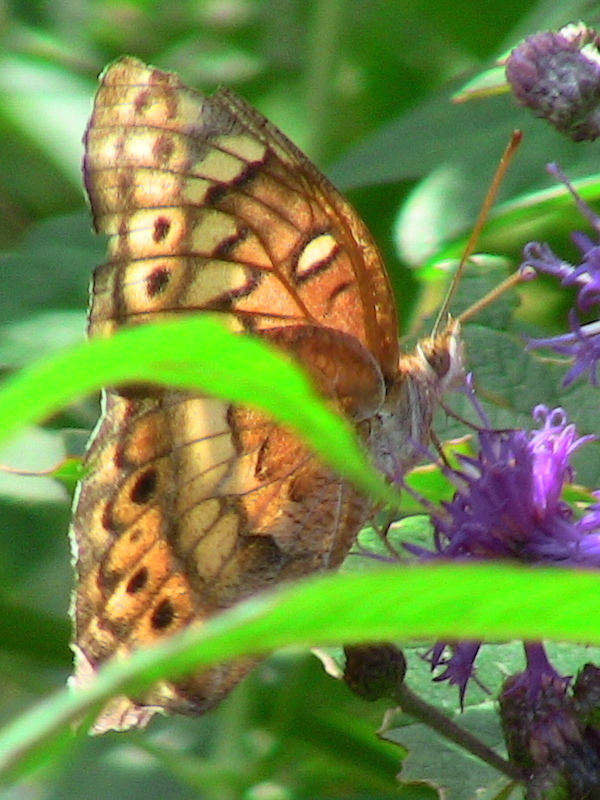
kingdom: Animalia
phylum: Arthropoda
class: Insecta
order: Lepidoptera
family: Nymphalidae
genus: Euptoieta
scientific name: Euptoieta claudia
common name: Variegated fritillary
